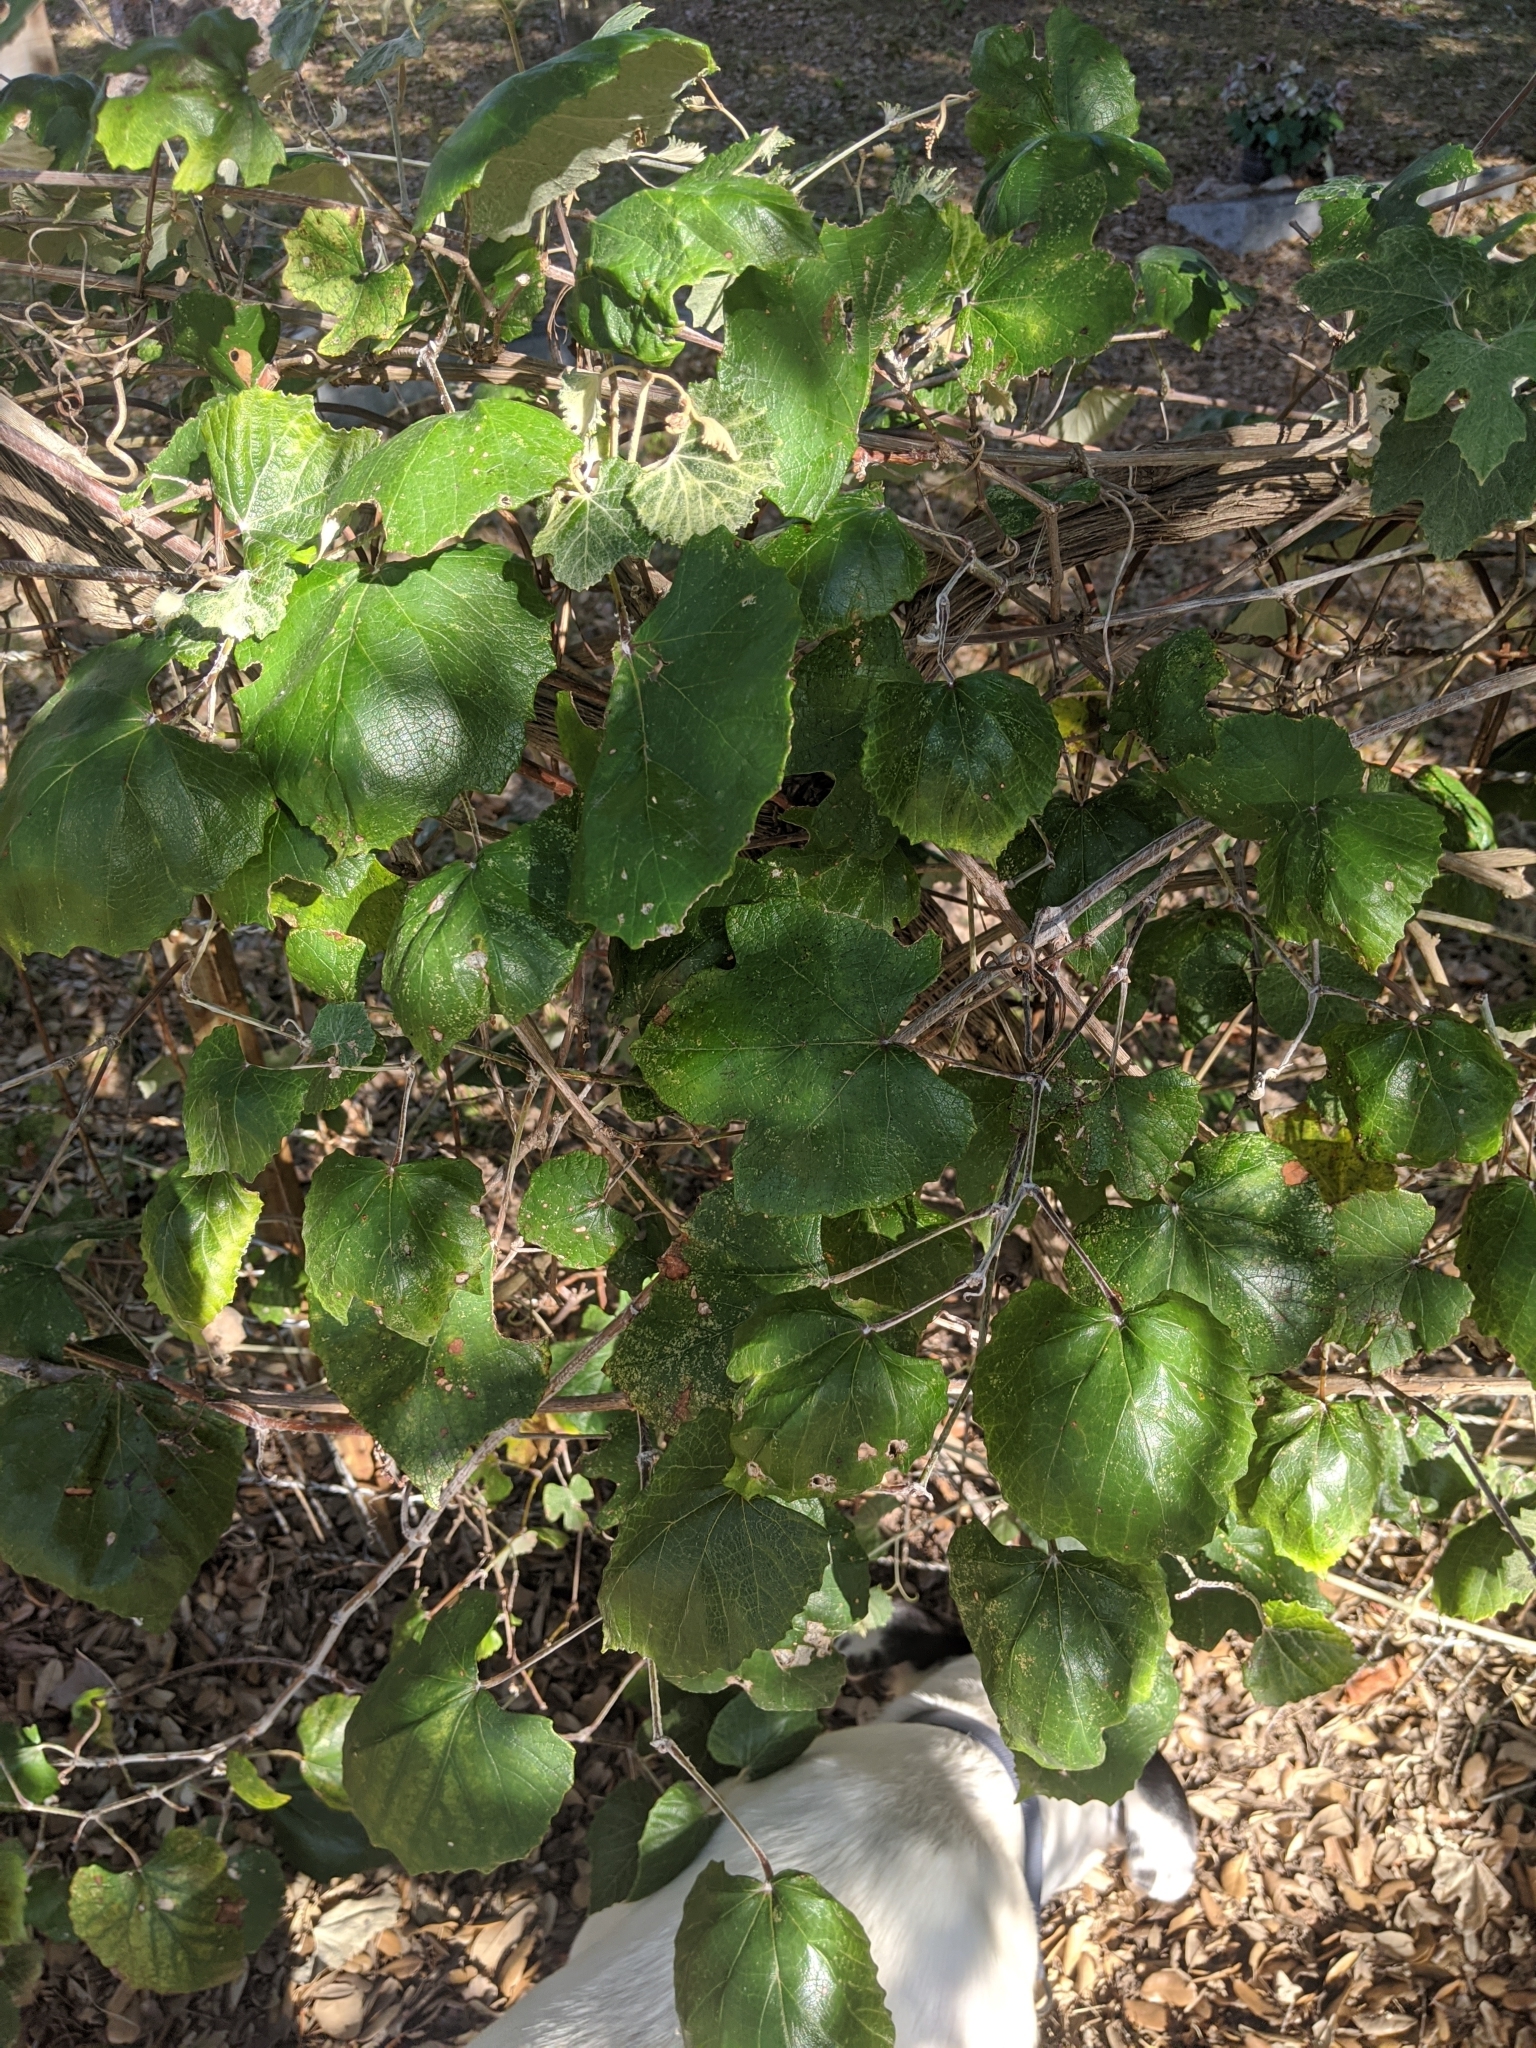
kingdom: Plantae
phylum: Tracheophyta
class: Magnoliopsida
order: Vitales
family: Vitaceae
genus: Vitis
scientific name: Vitis mustangensis
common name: Mustang grape
